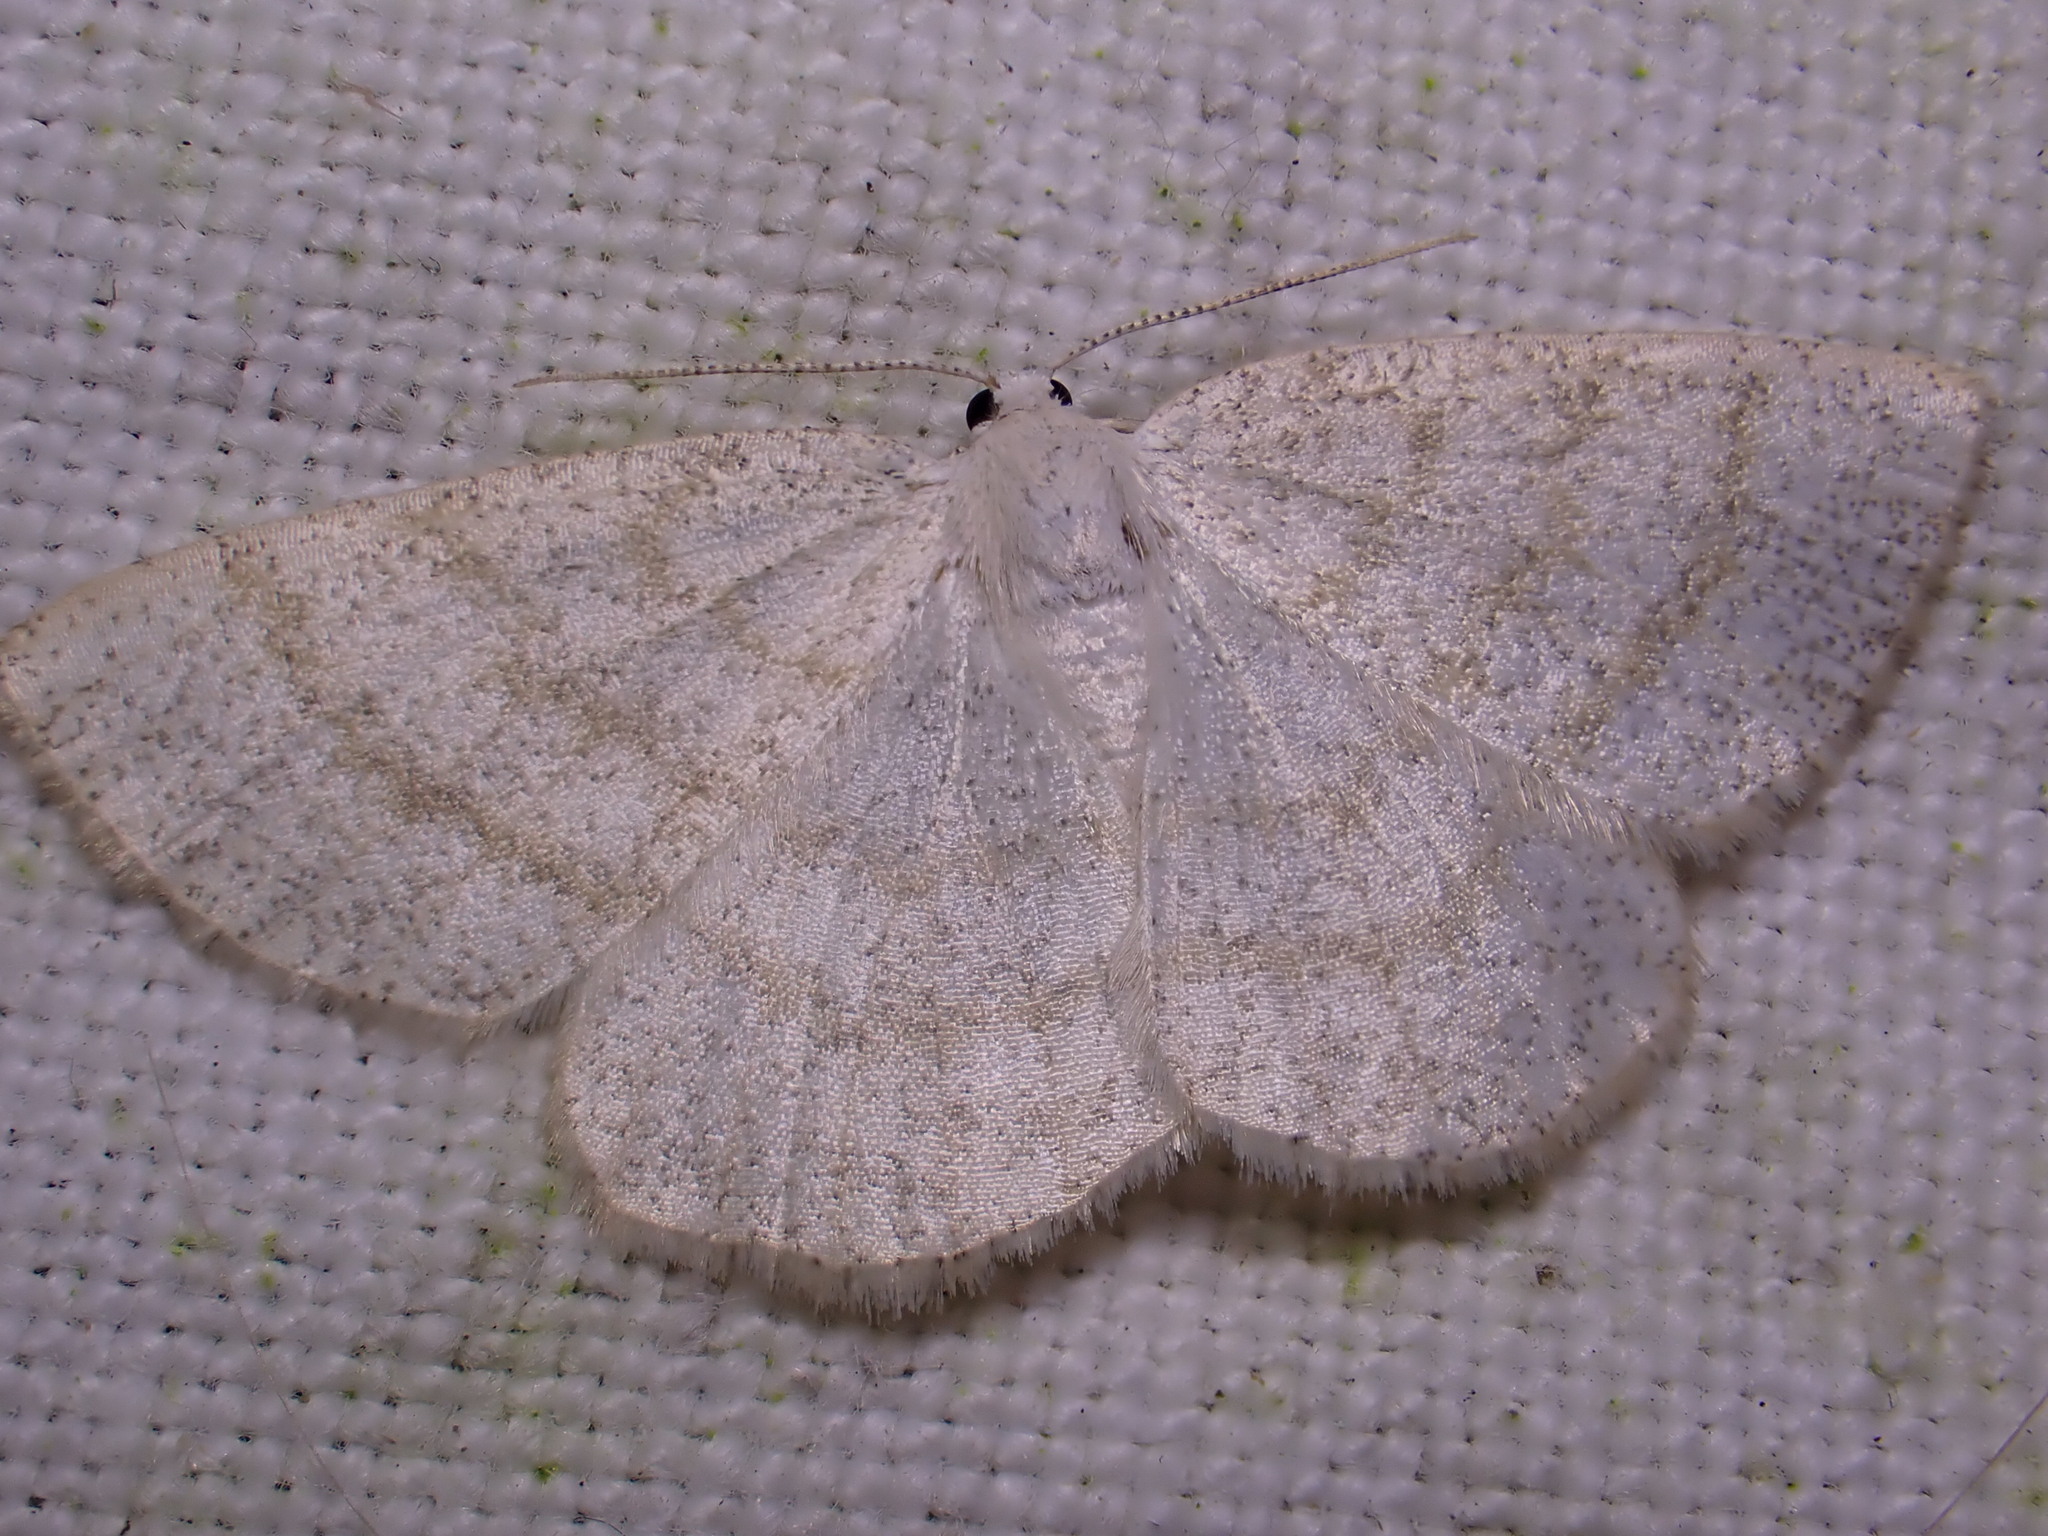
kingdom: Animalia
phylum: Arthropoda
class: Insecta
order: Lepidoptera
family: Geometridae
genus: Cabera
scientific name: Cabera exanthemata
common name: Common wave
